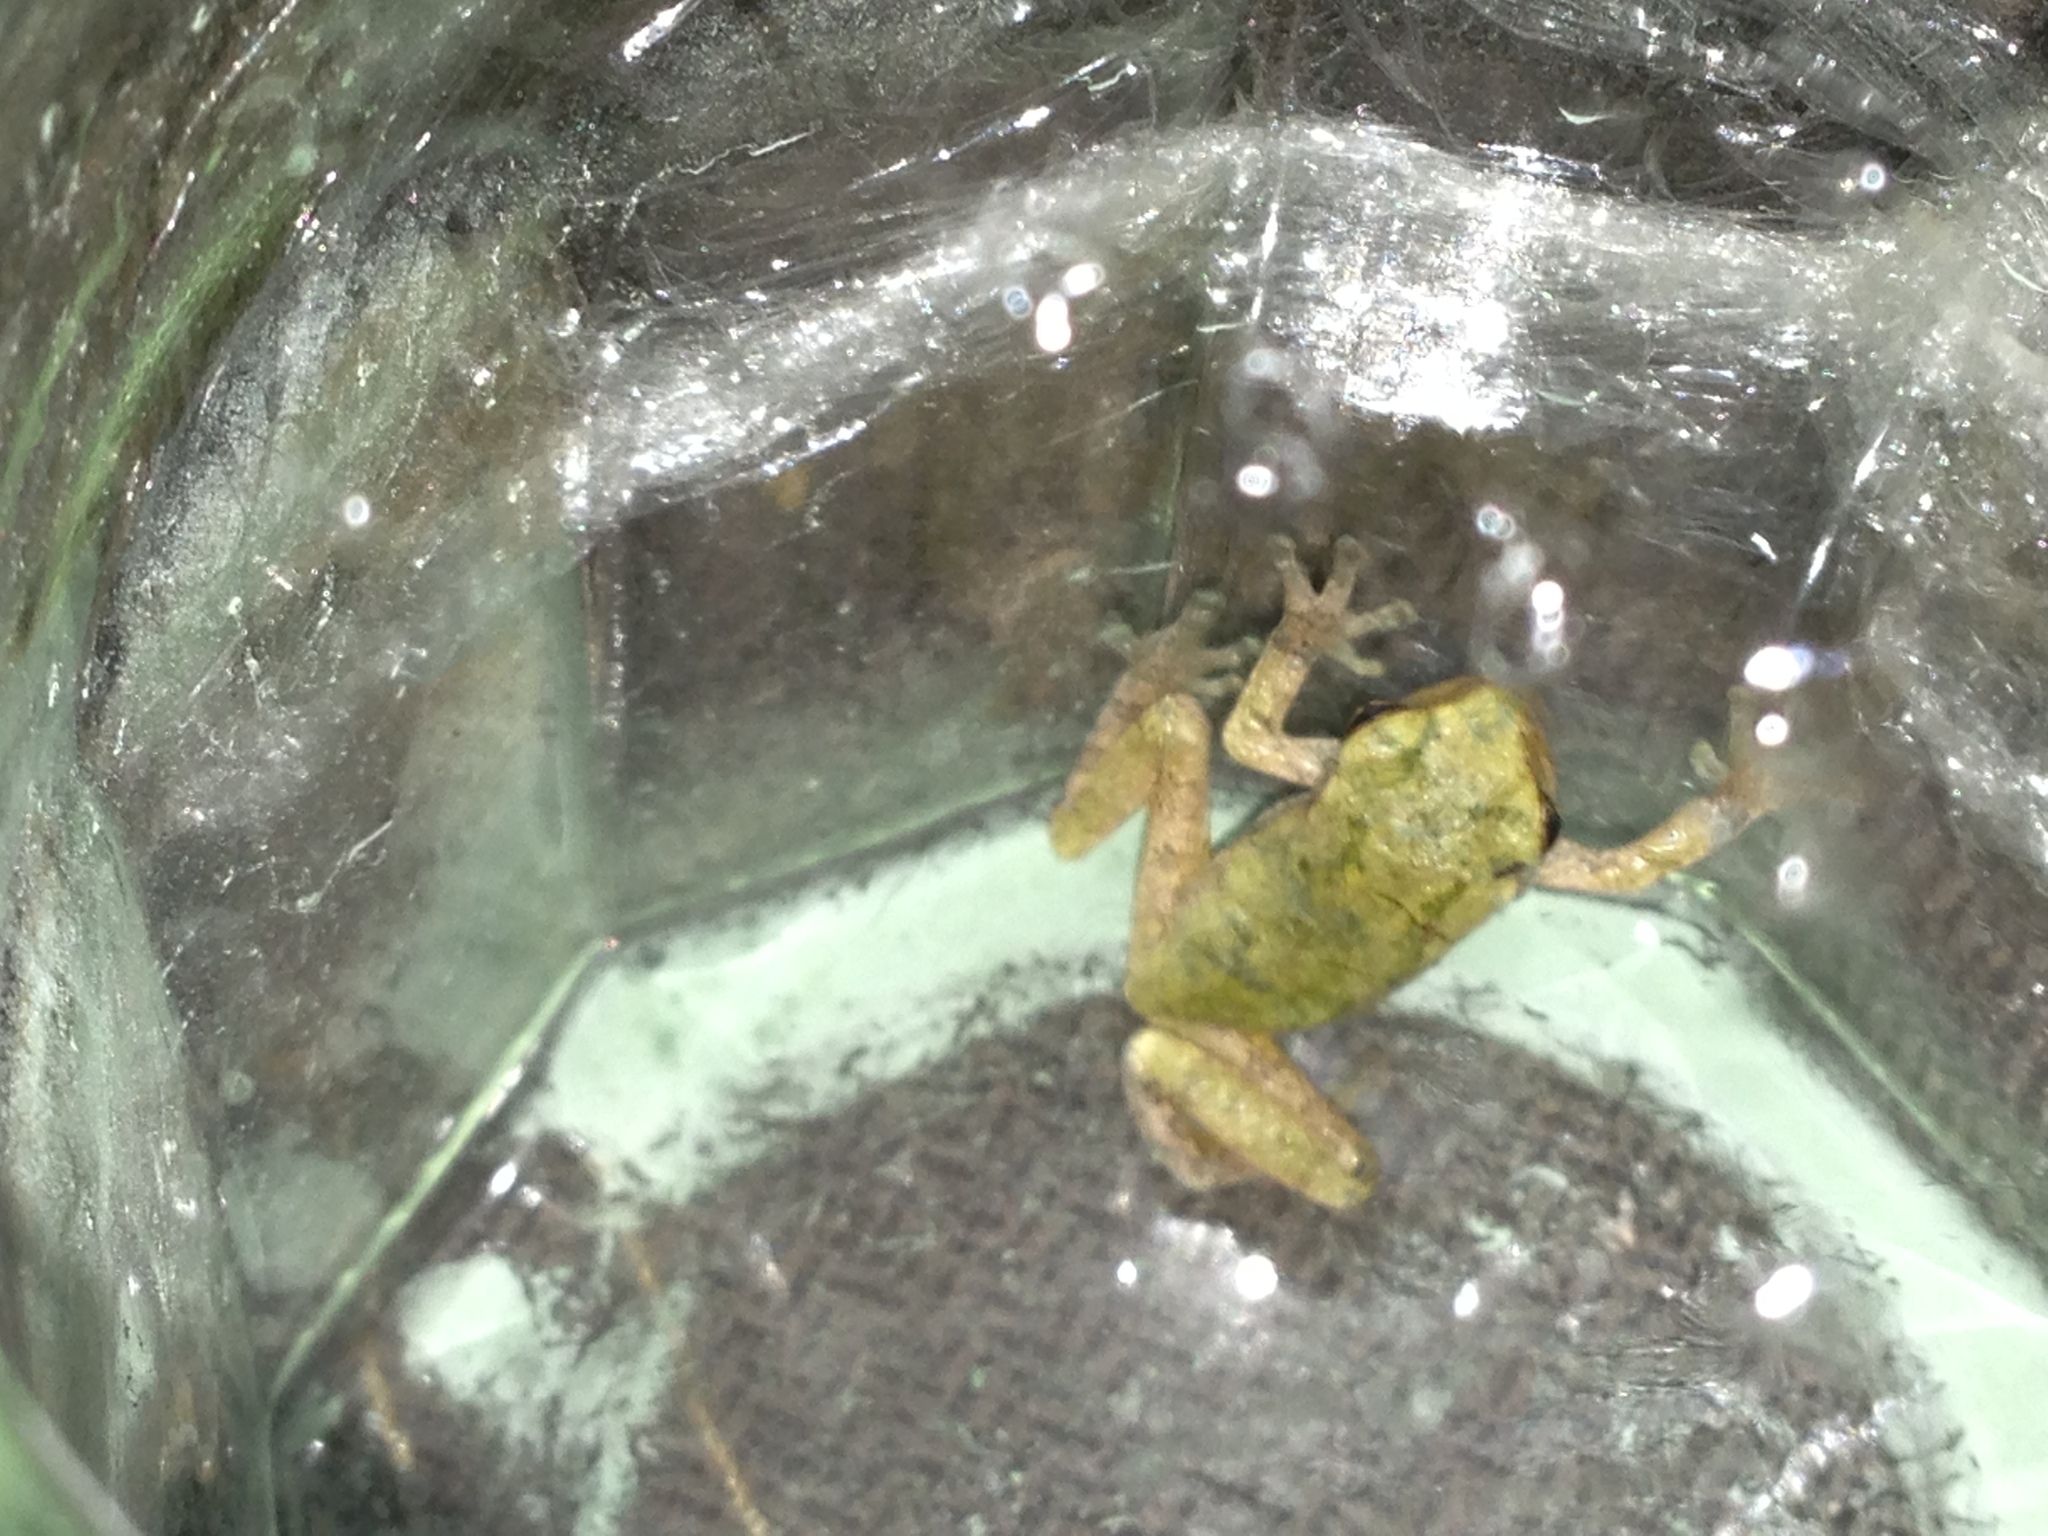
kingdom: Animalia
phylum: Chordata
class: Amphibia
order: Anura
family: Hylidae
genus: Dryophytes
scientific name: Dryophytes versicolor
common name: Gray treefrog
